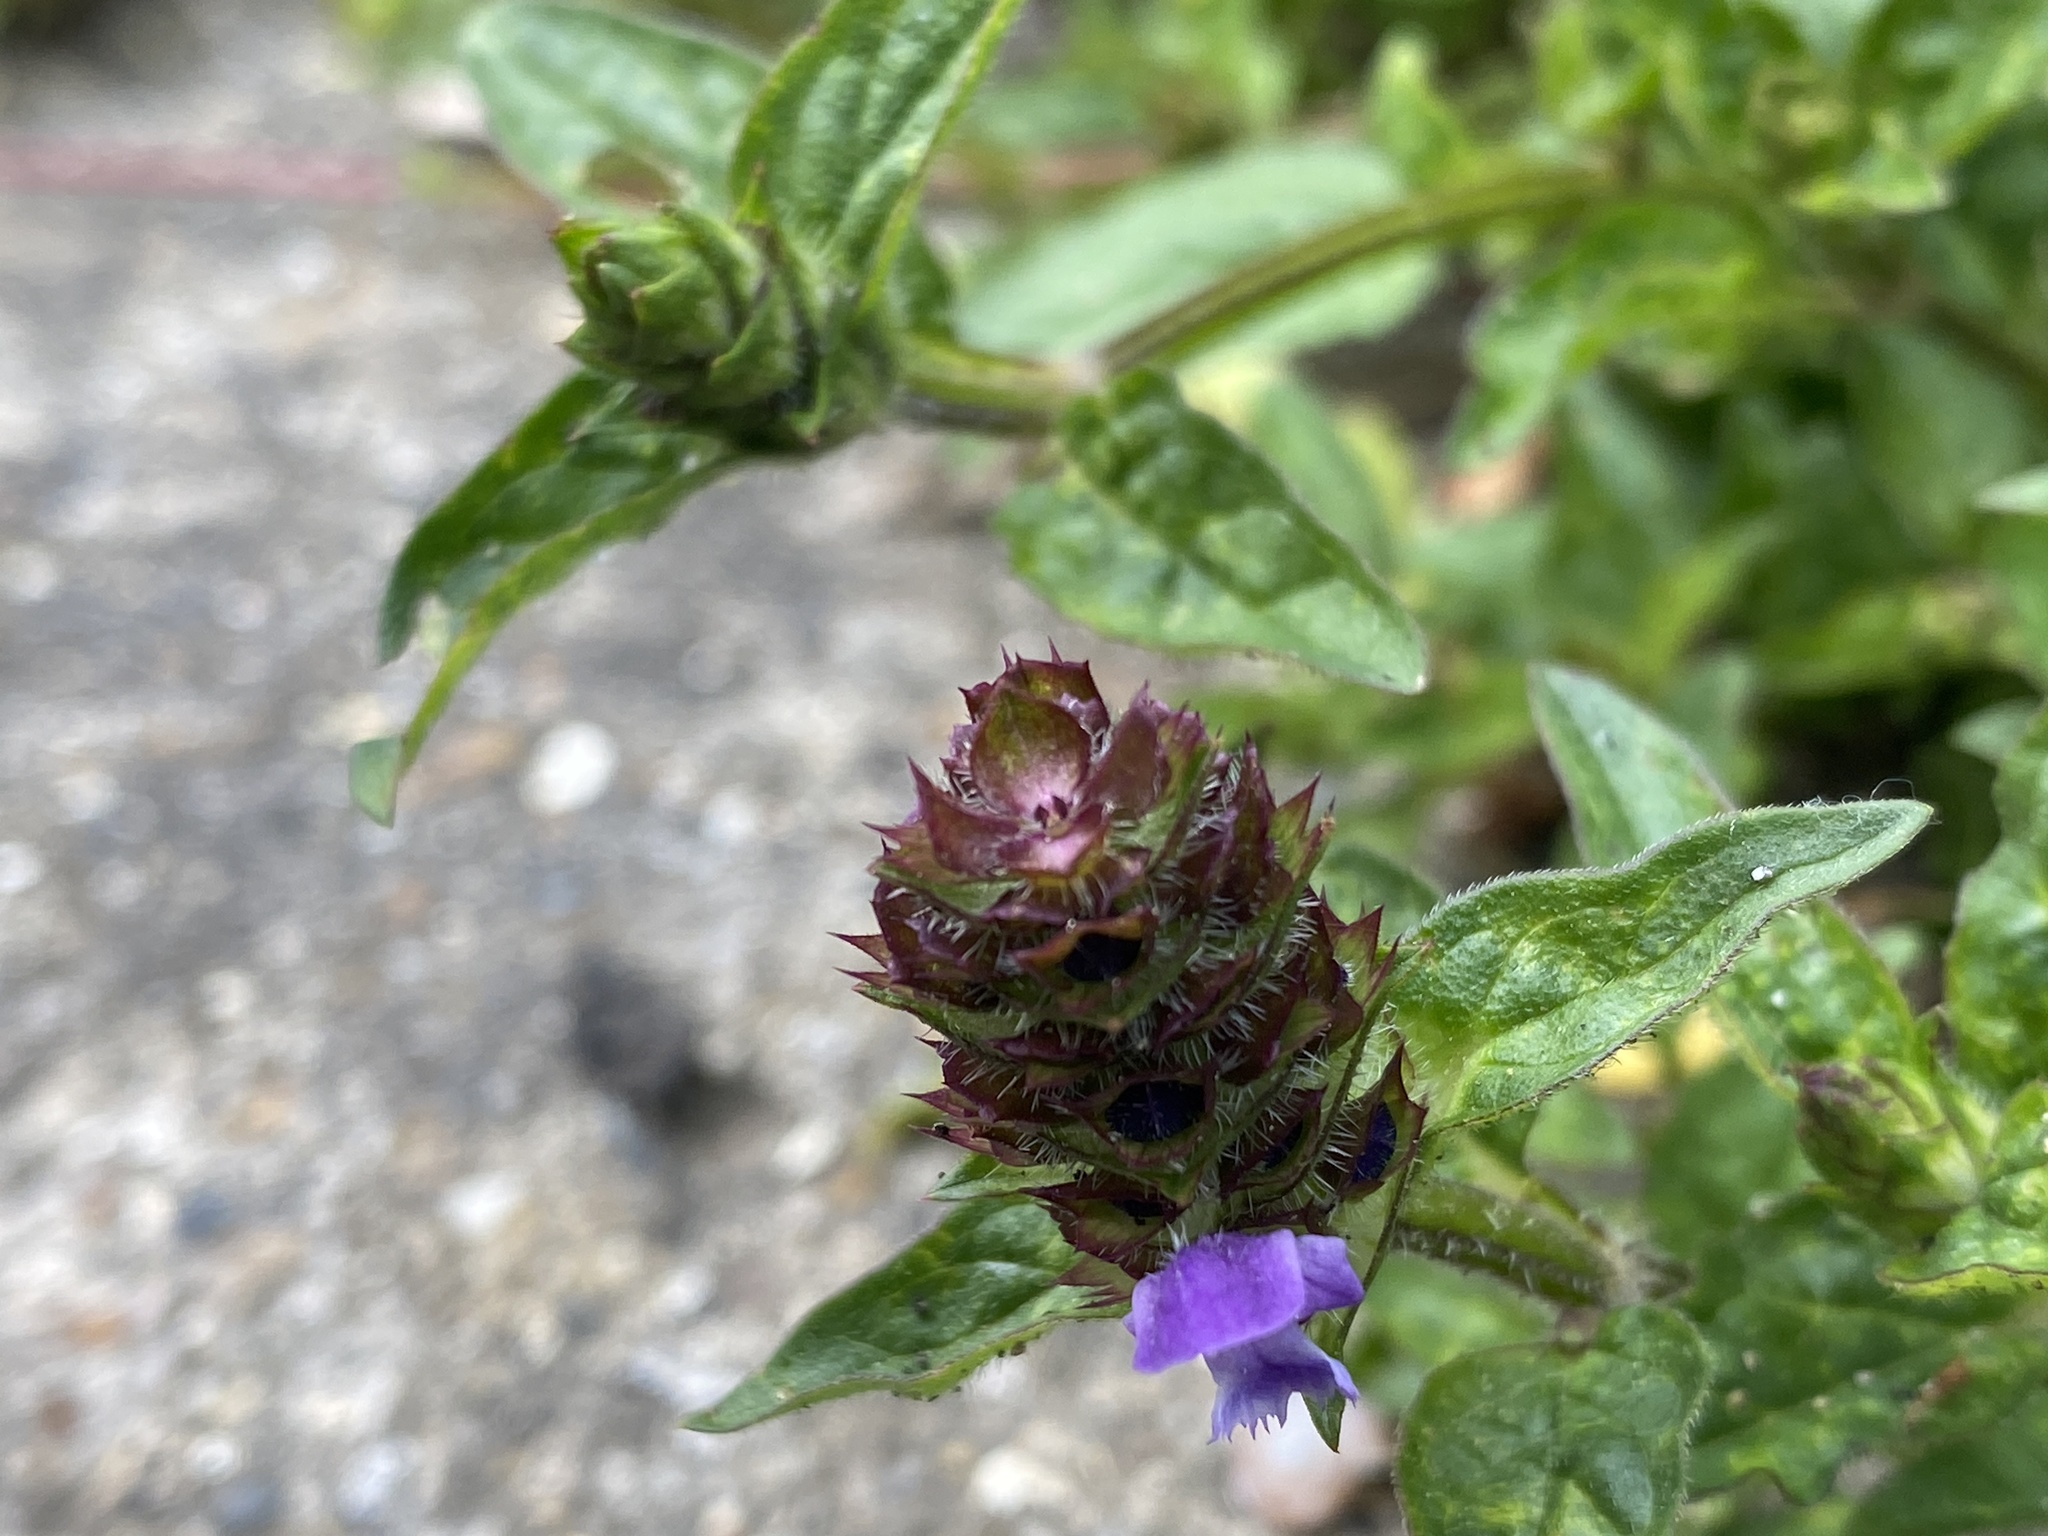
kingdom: Plantae
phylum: Tracheophyta
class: Magnoliopsida
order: Lamiales
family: Lamiaceae
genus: Prunella
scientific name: Prunella vulgaris
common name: Heal-all
